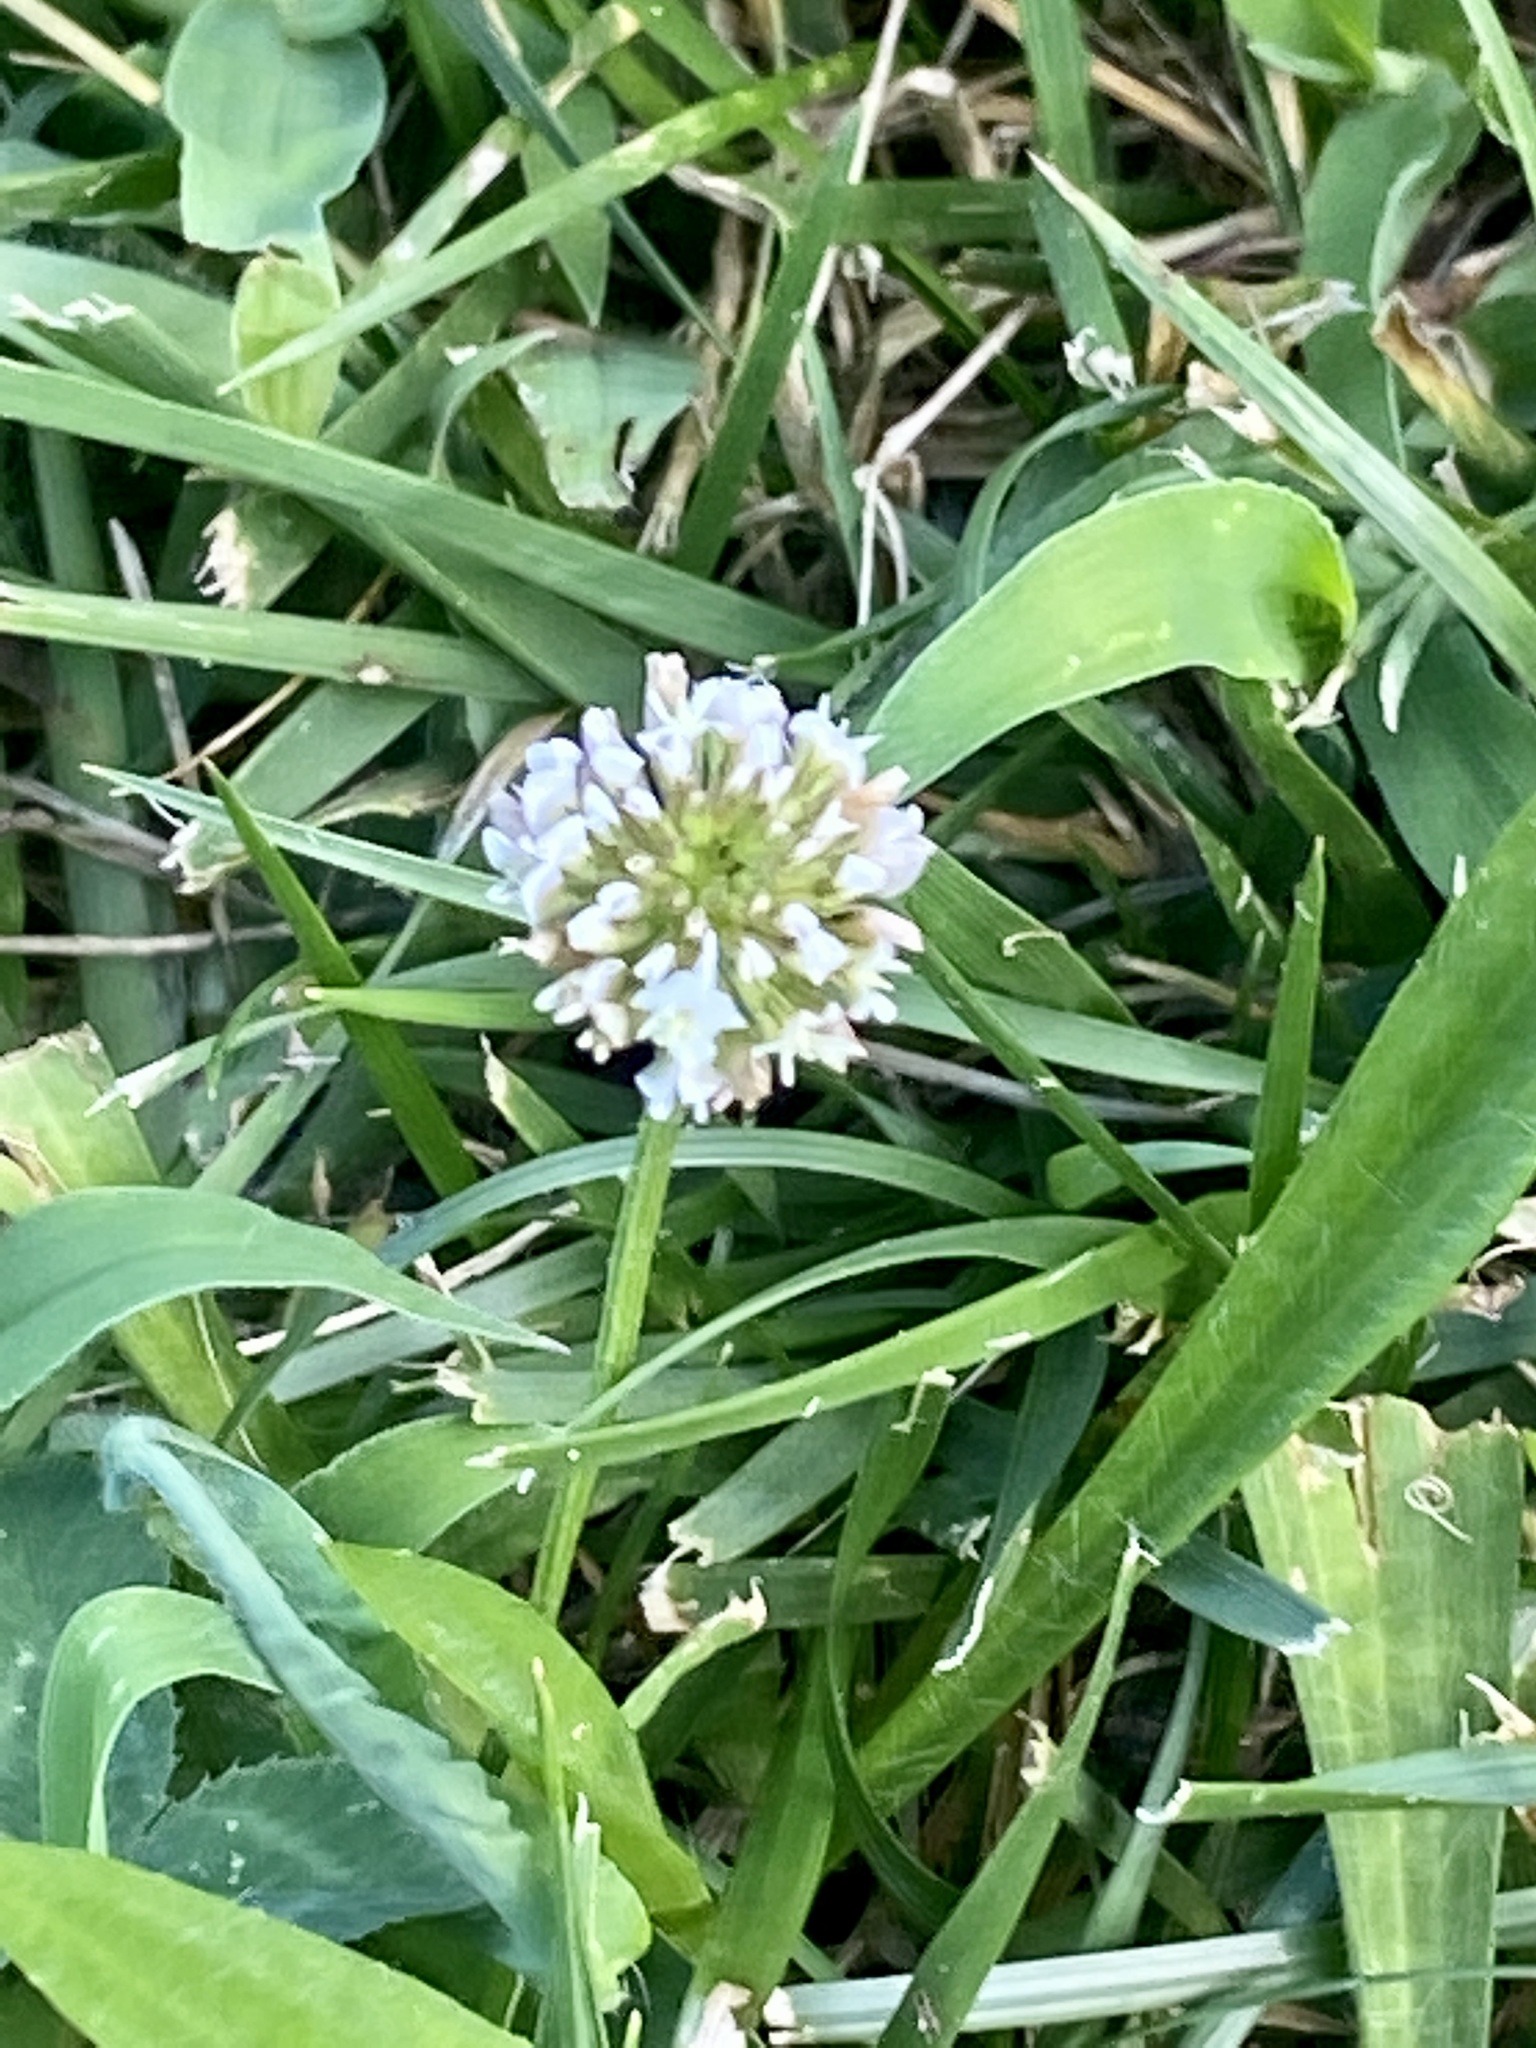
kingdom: Plantae
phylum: Tracheophyta
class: Magnoliopsida
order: Fabales
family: Fabaceae
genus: Trifolium
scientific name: Trifolium repens
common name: White clover
